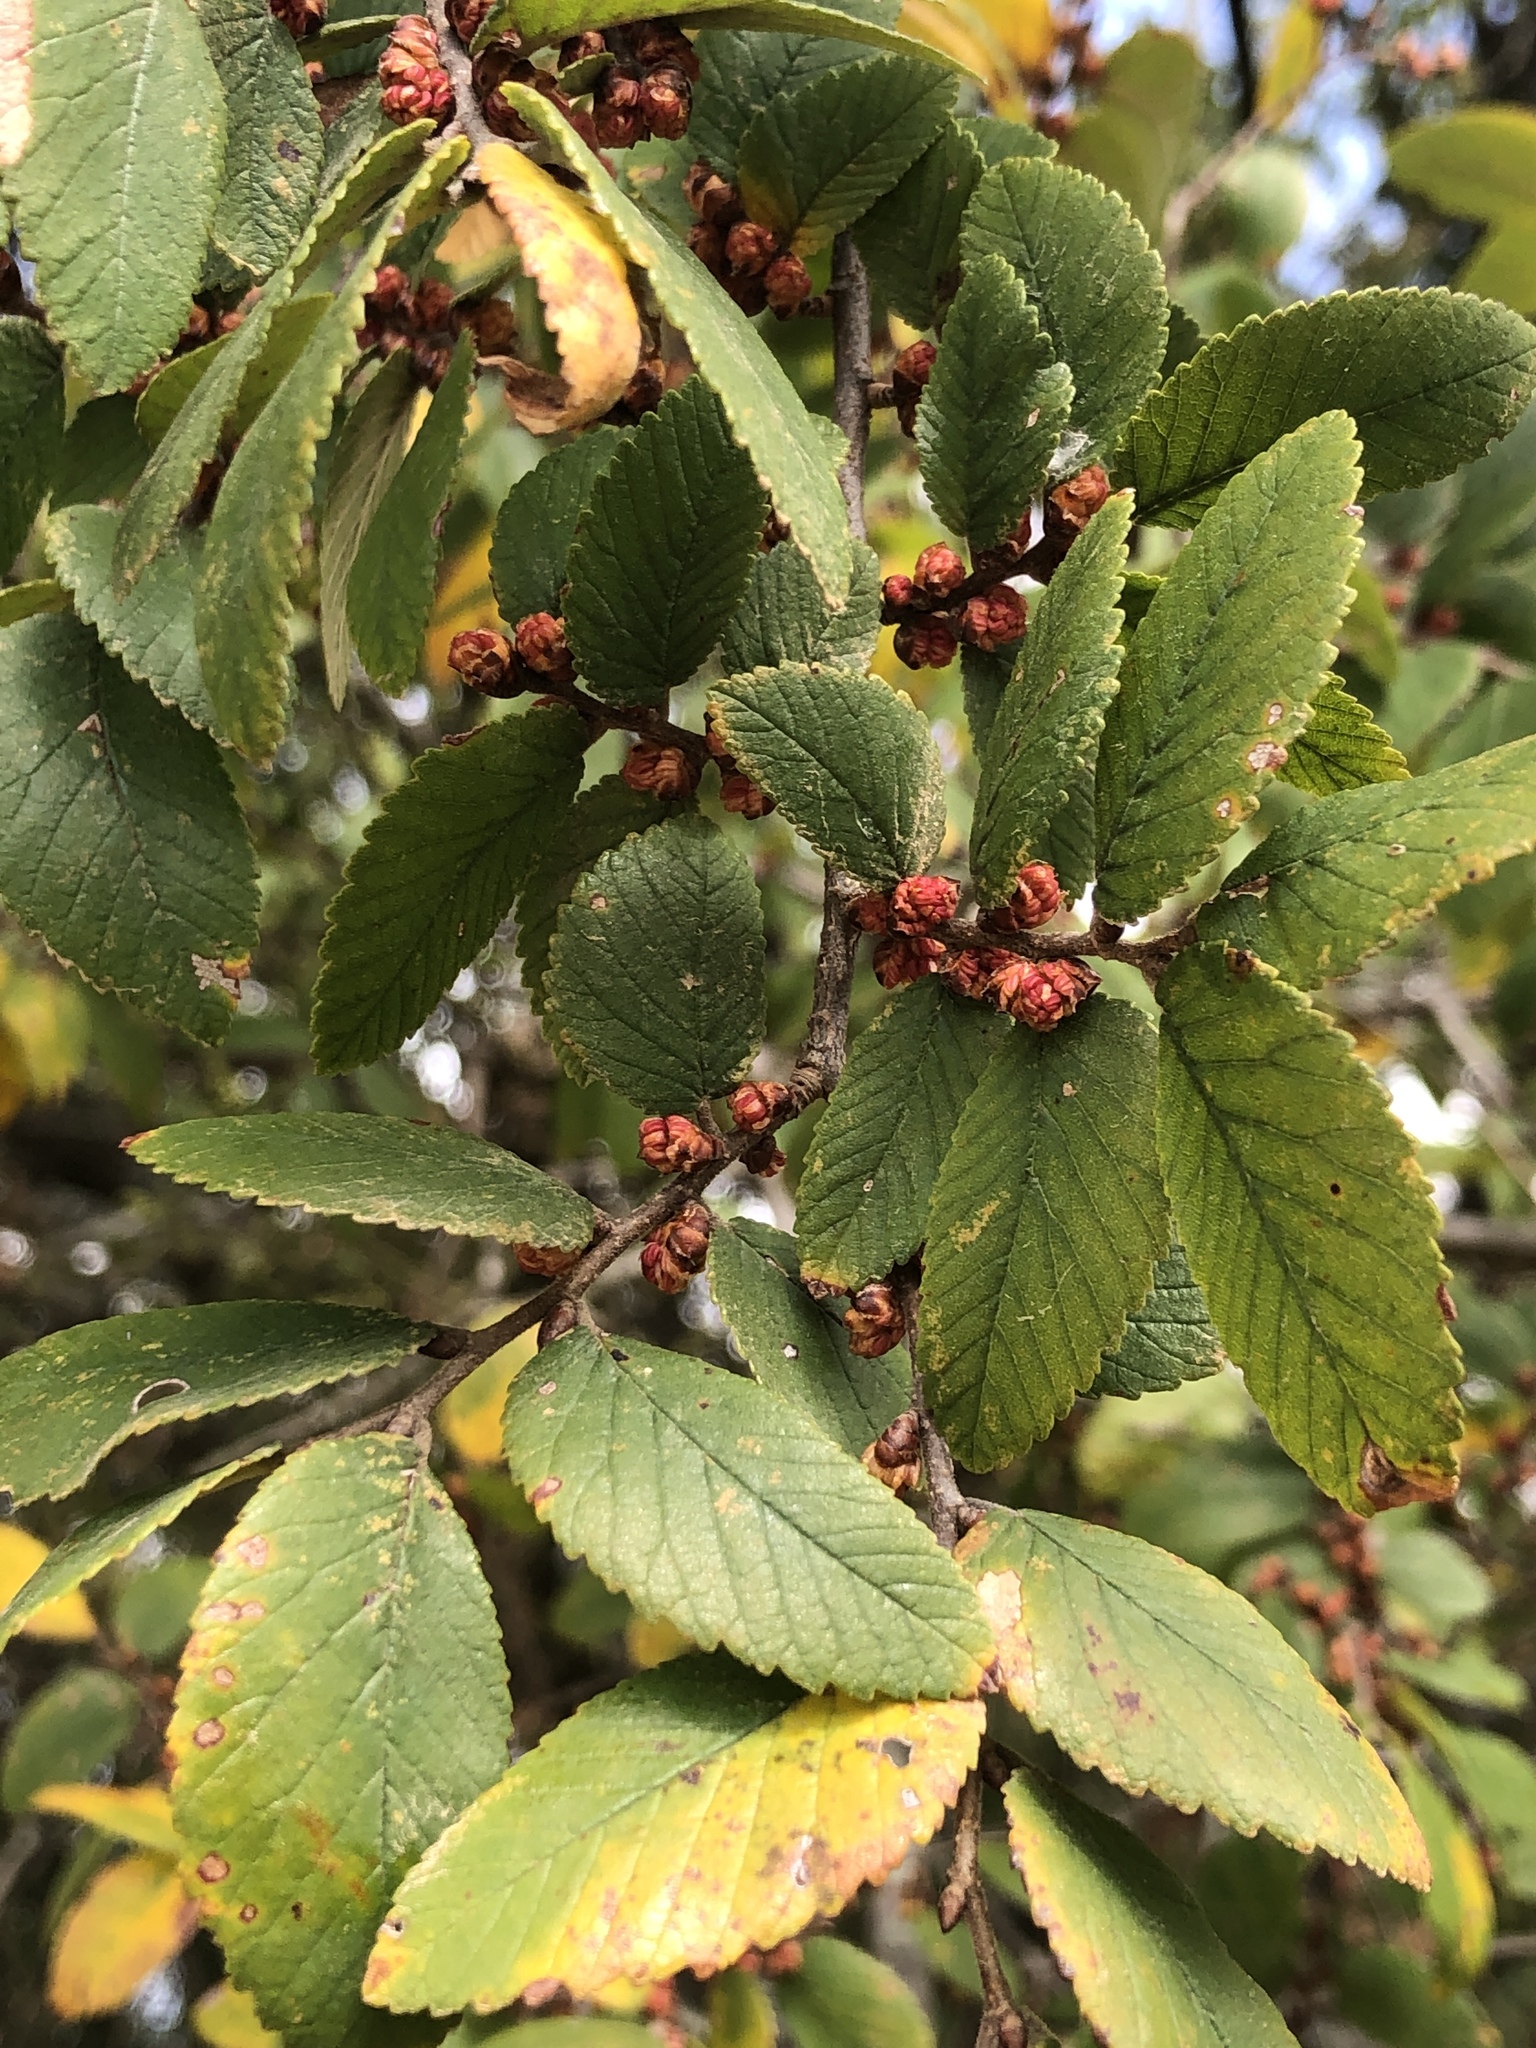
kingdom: Plantae
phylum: Tracheophyta
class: Magnoliopsida
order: Rosales
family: Ulmaceae
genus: Ulmus
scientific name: Ulmus crassifolia
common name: Basket elm
